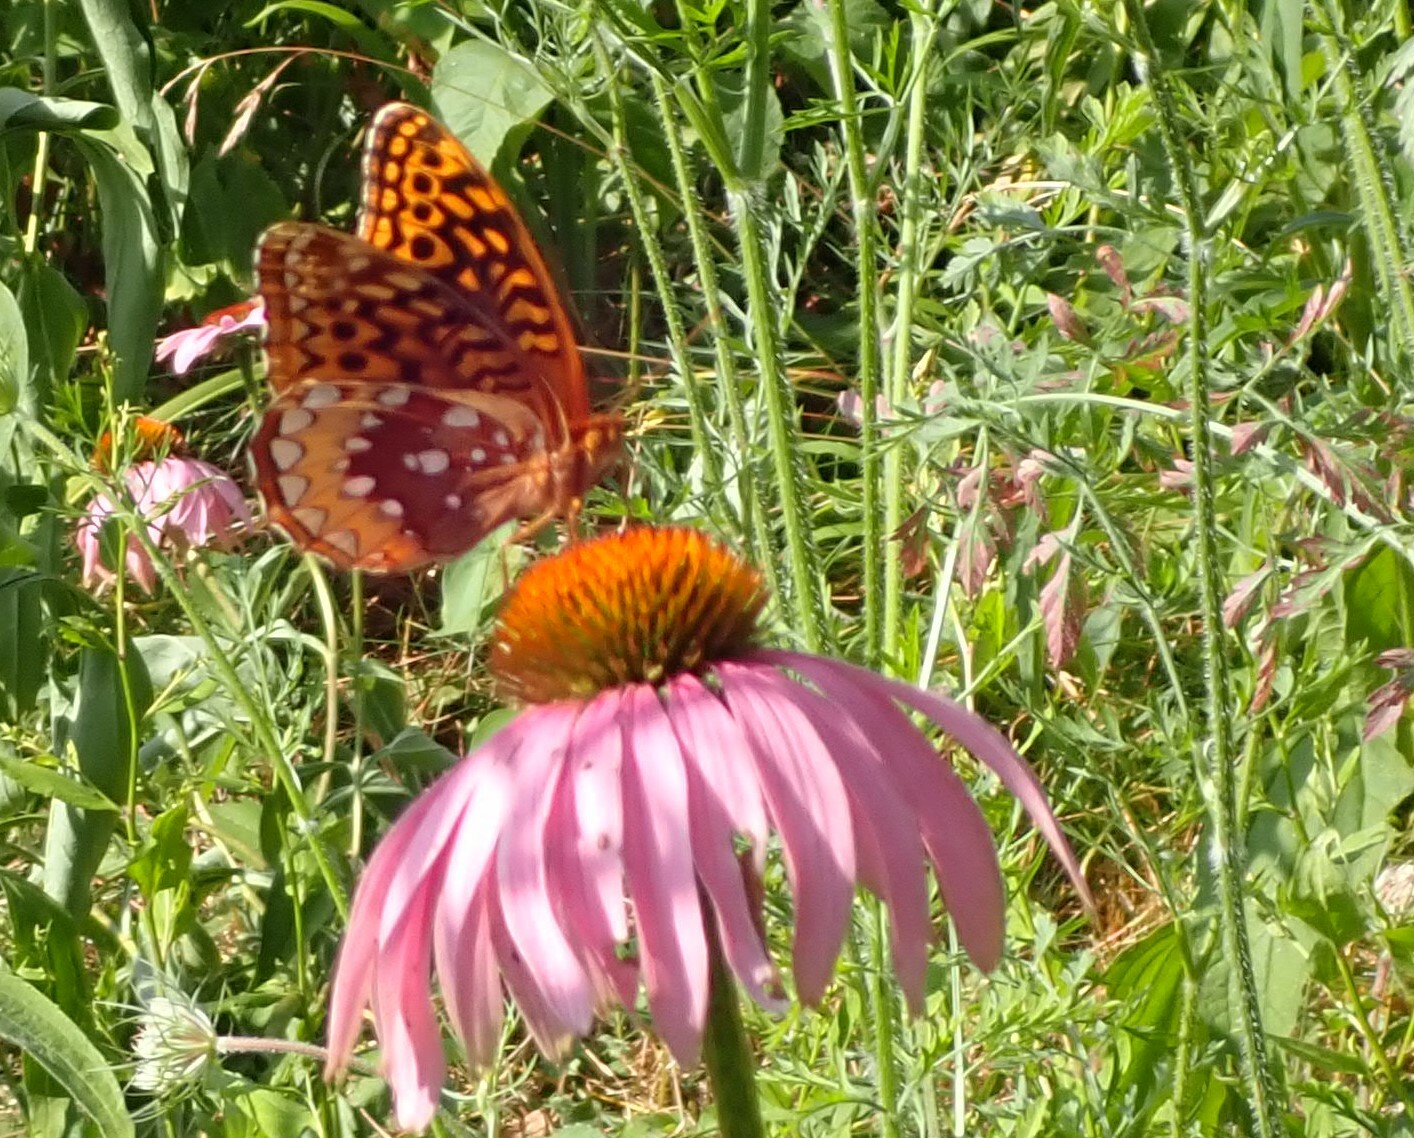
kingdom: Animalia
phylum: Arthropoda
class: Insecta
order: Lepidoptera
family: Nymphalidae
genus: Speyeria
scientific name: Speyeria cybele
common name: Great spangled fritillary
